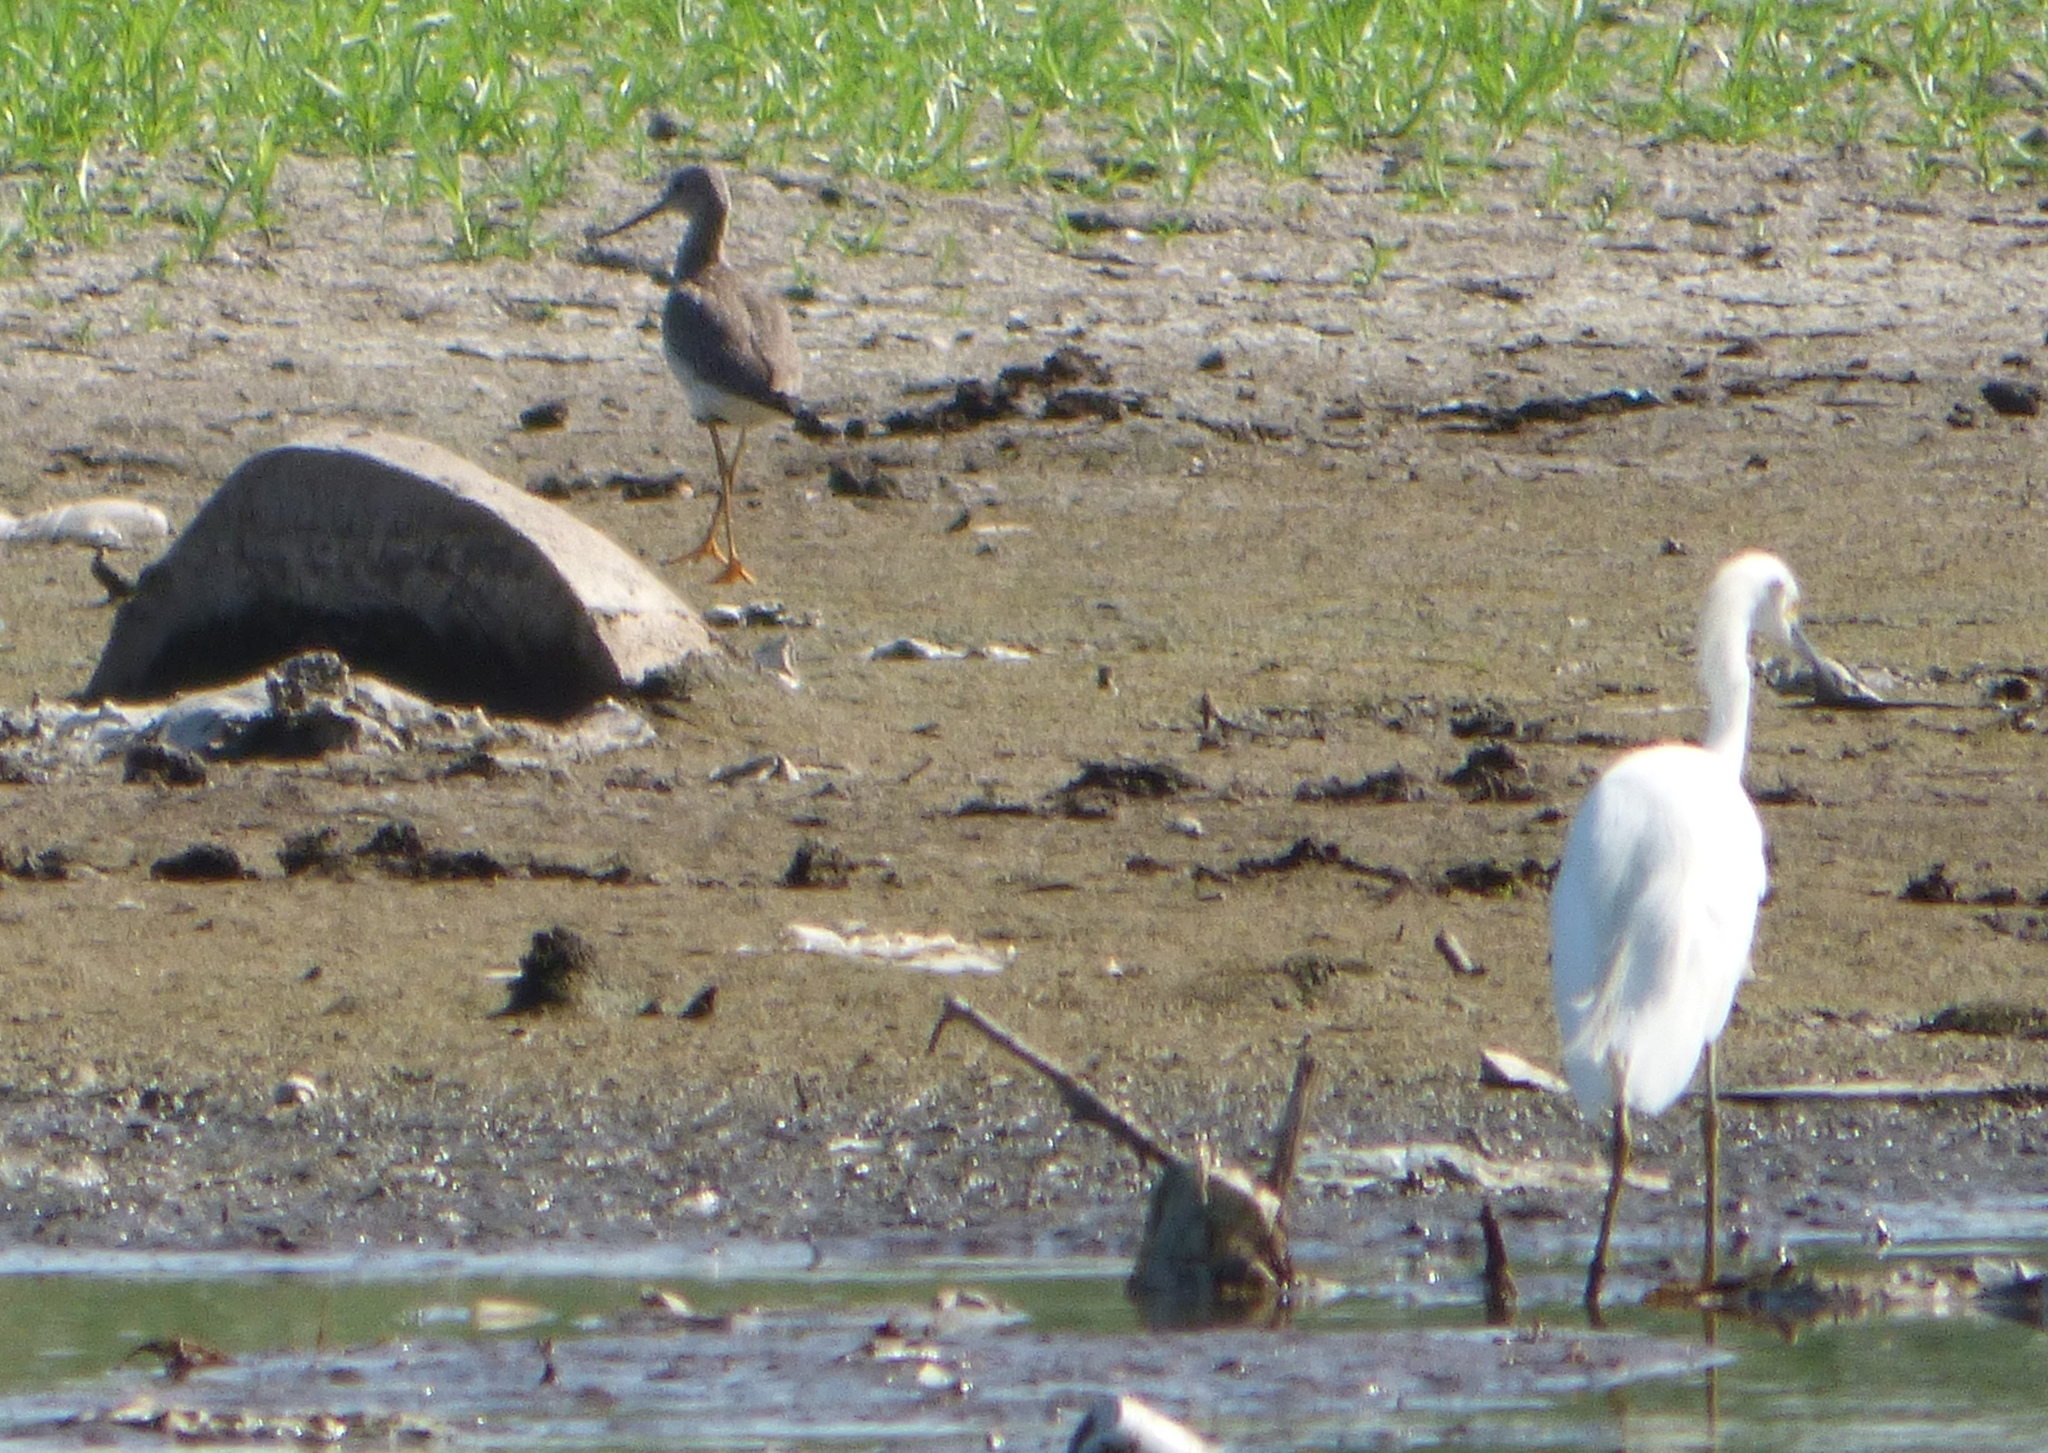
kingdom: Animalia
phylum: Chordata
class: Aves
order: Charadriiformes
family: Scolopacidae
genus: Tringa
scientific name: Tringa melanoleuca
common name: Greater yellowlegs
